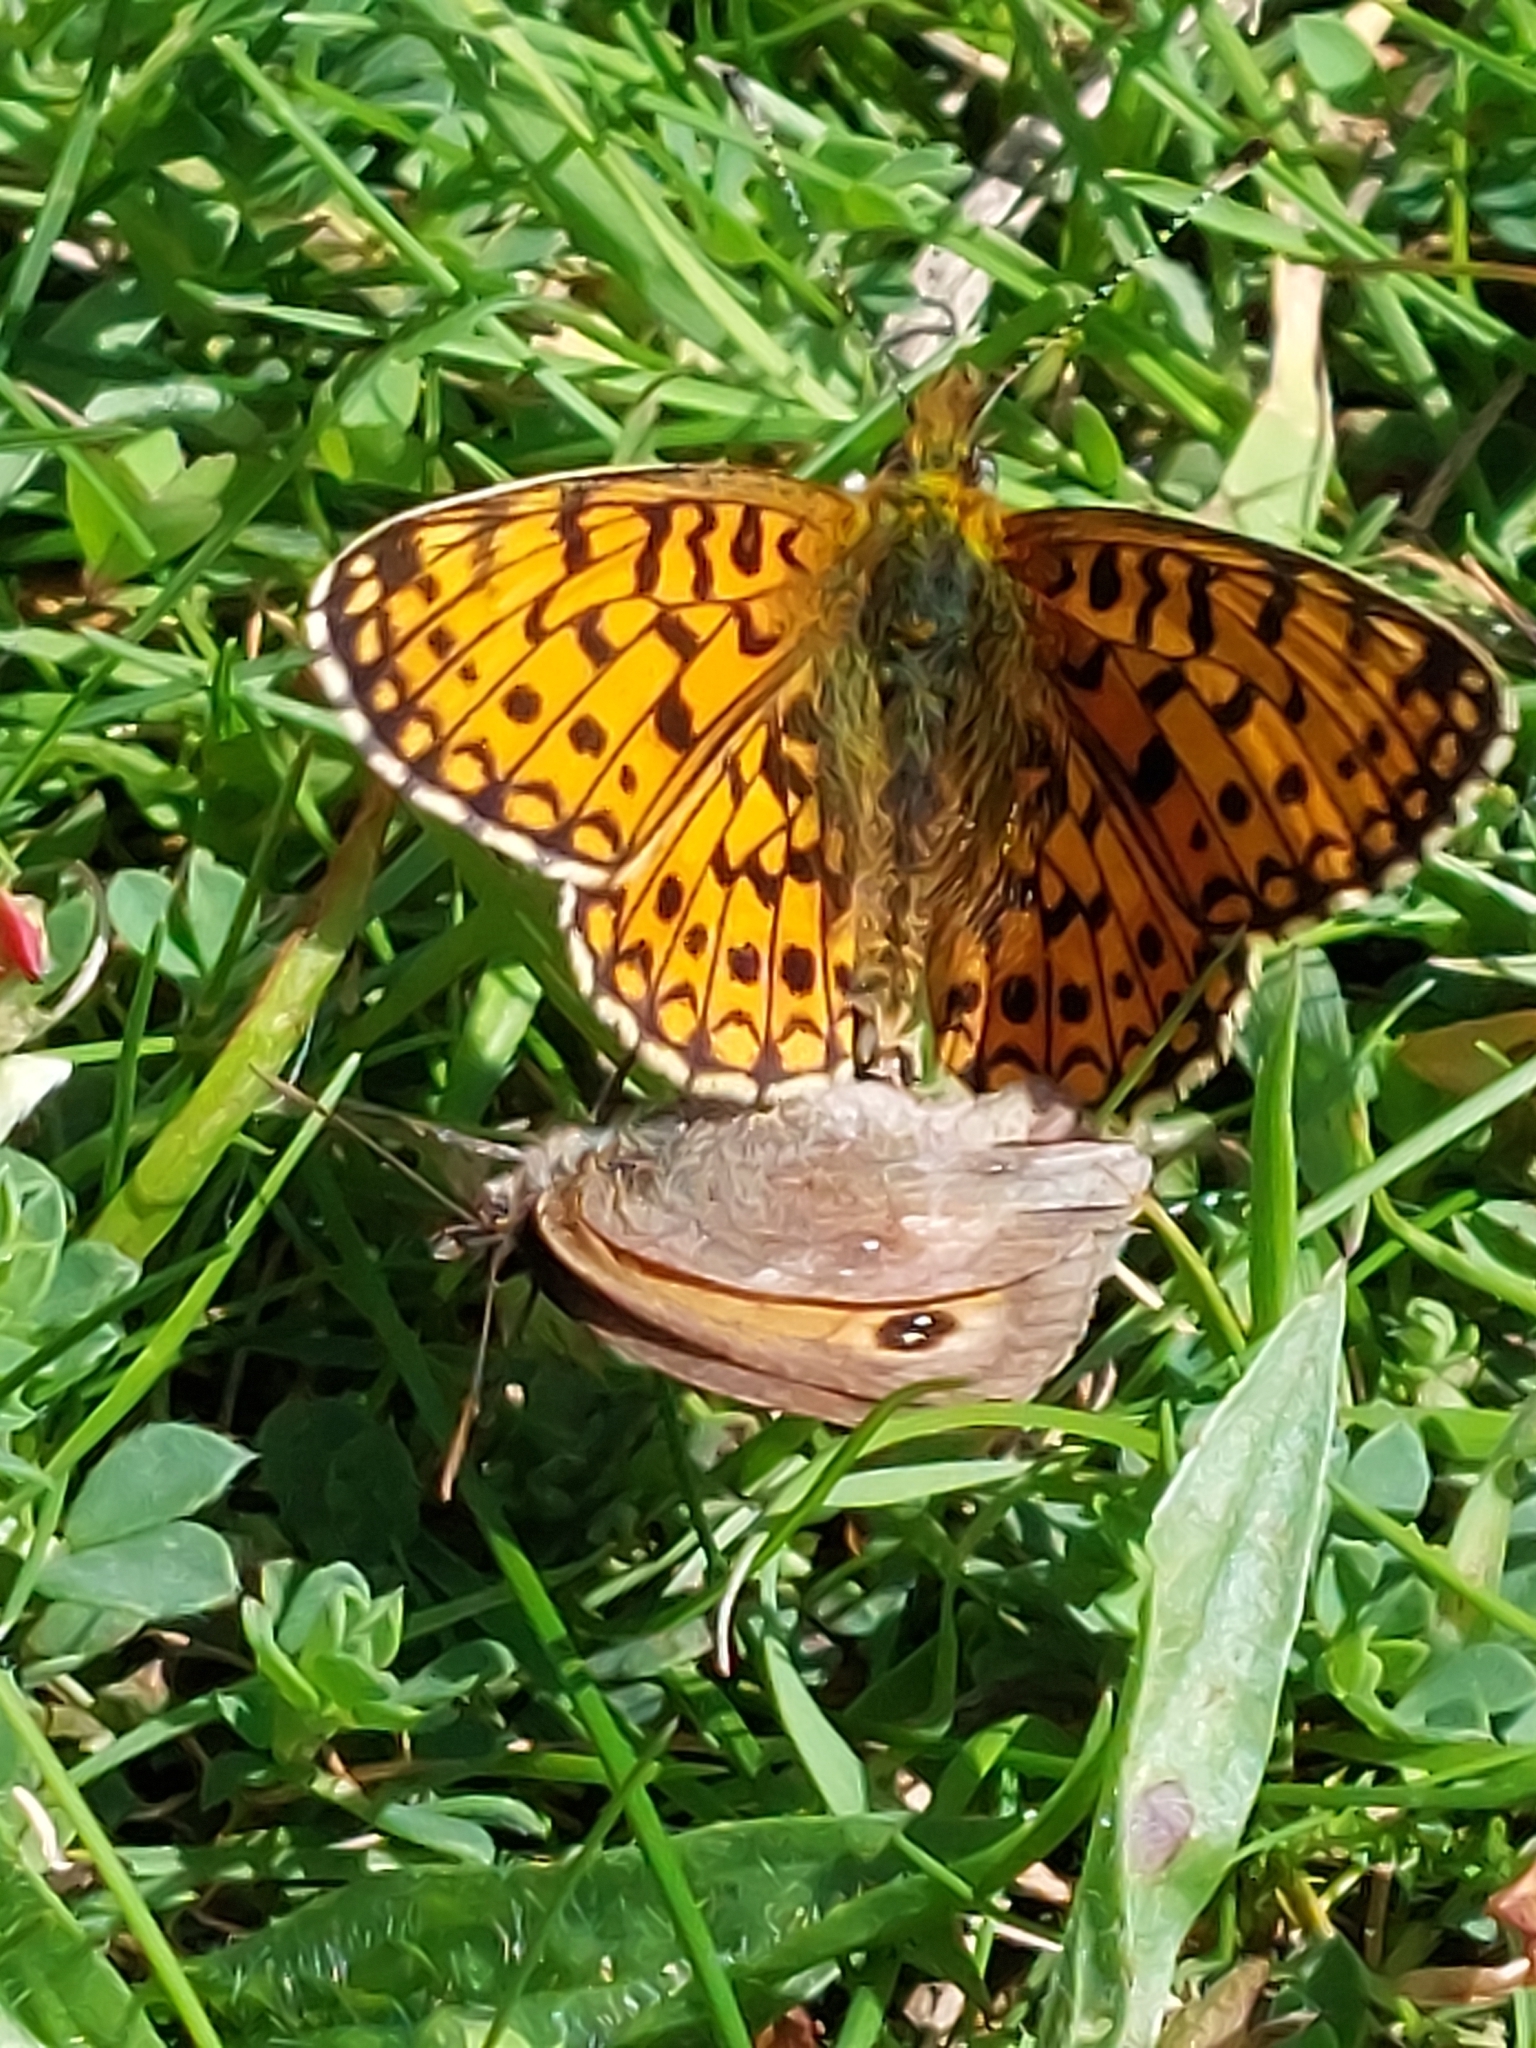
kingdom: Animalia
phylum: Arthropoda
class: Insecta
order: Lepidoptera
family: Nymphalidae
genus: Pyronia
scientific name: Pyronia tithonus
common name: Gatekeeper
